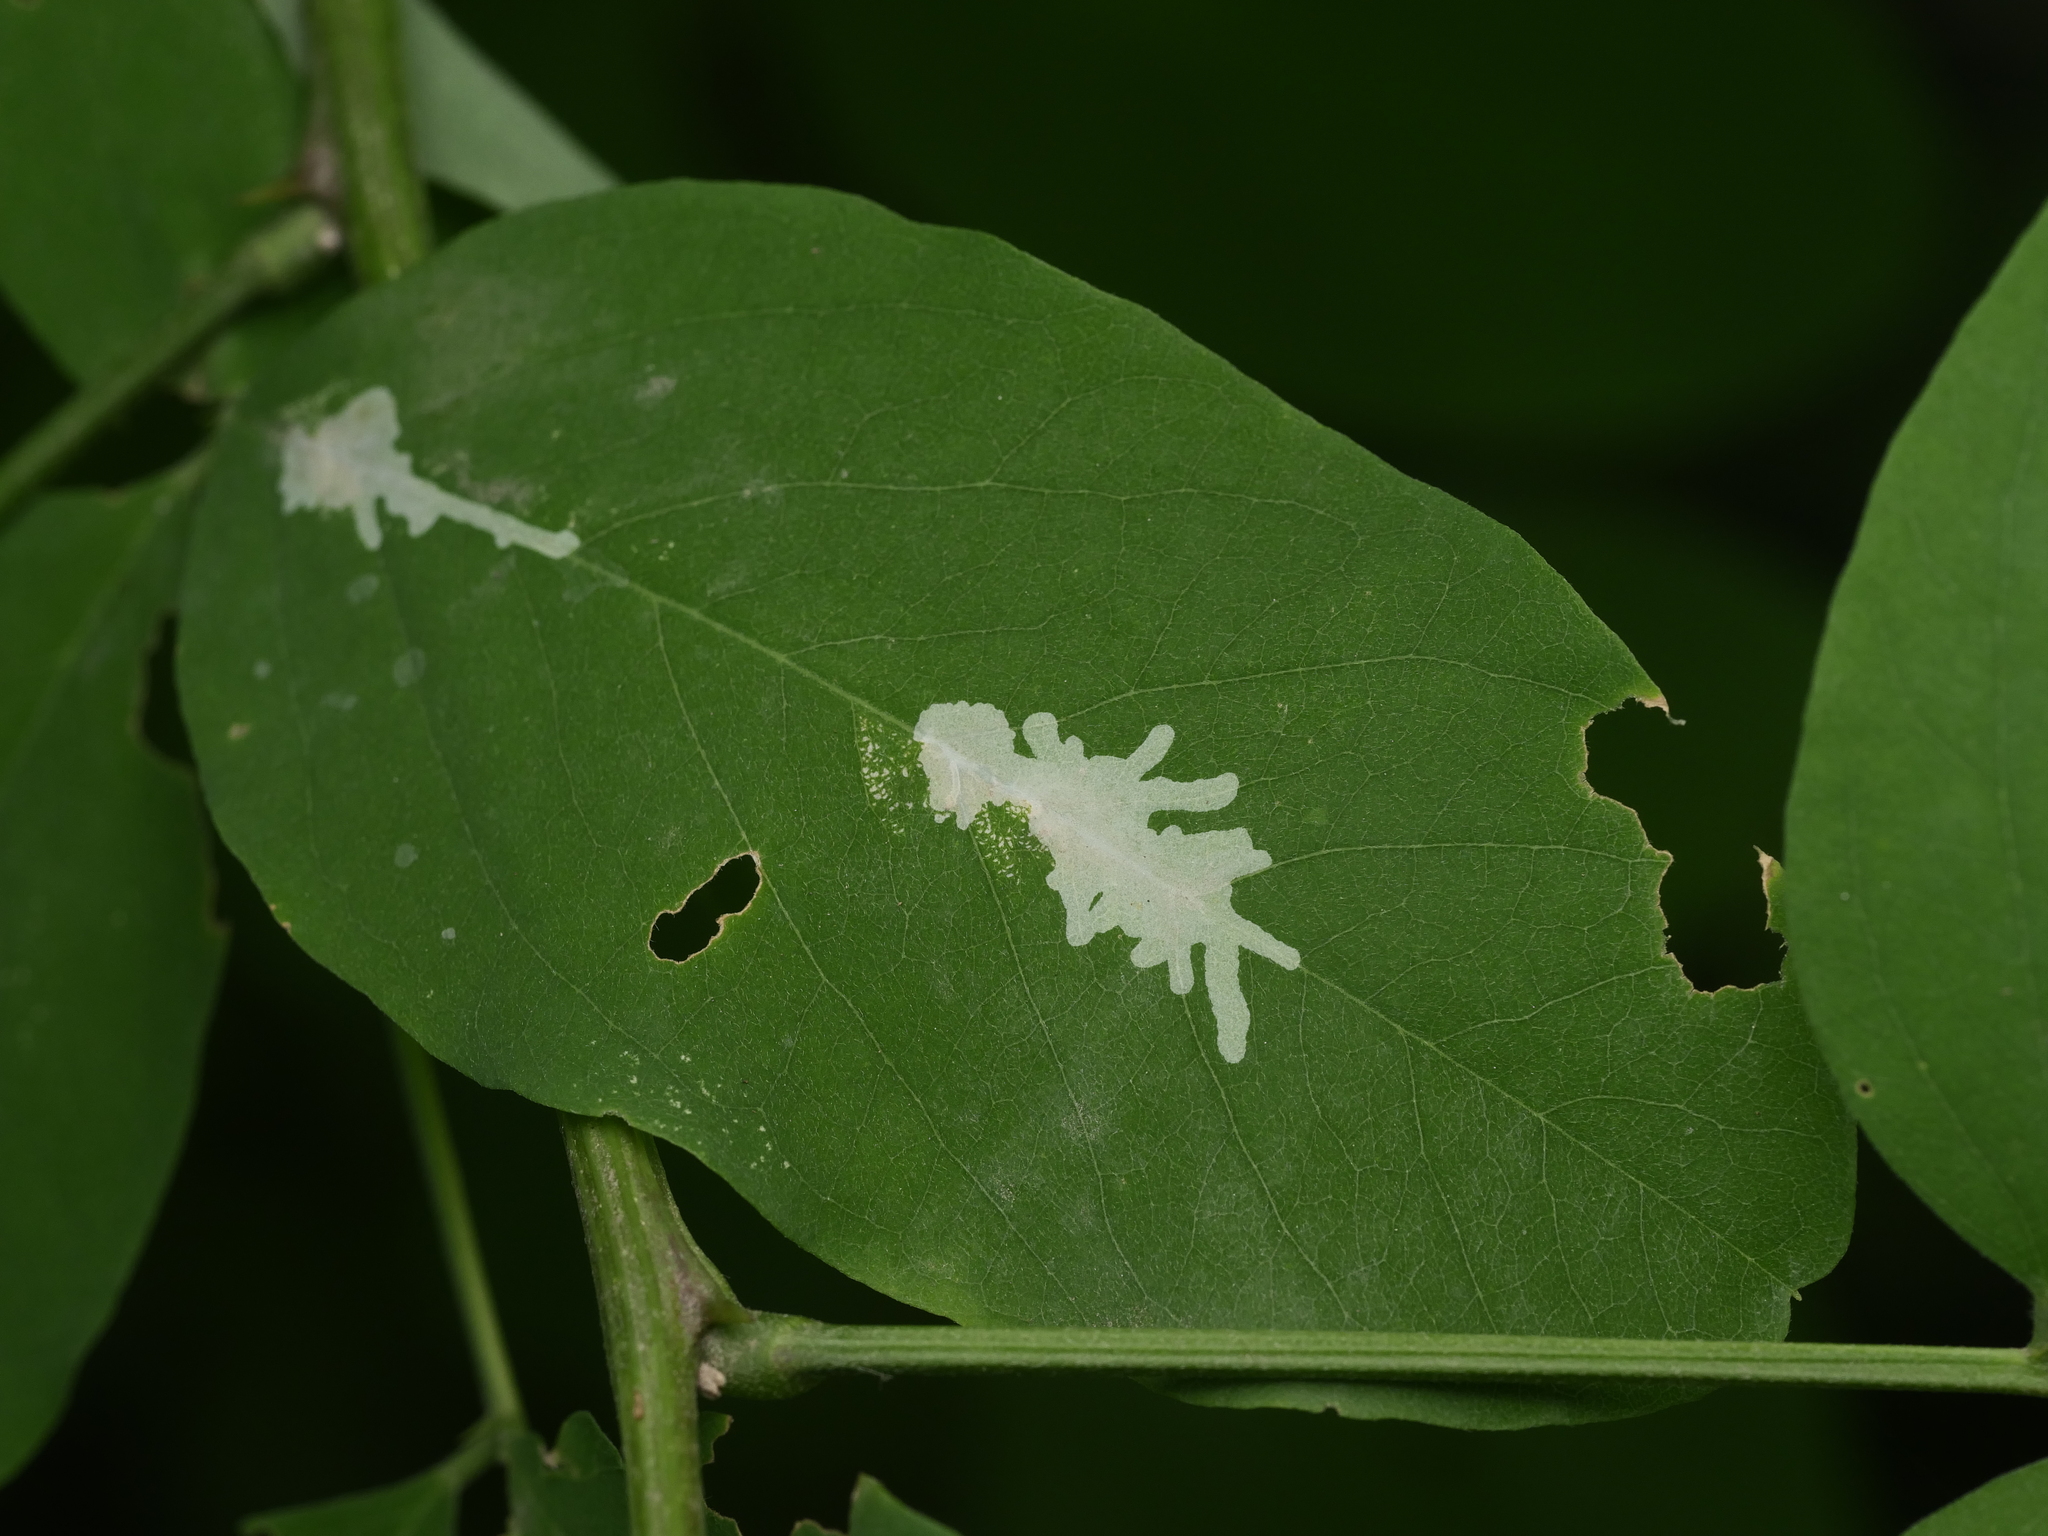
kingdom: Animalia
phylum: Arthropoda
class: Insecta
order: Lepidoptera
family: Gracillariidae
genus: Parectopa
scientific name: Parectopa robiniella
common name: Locust digitate leafminer
